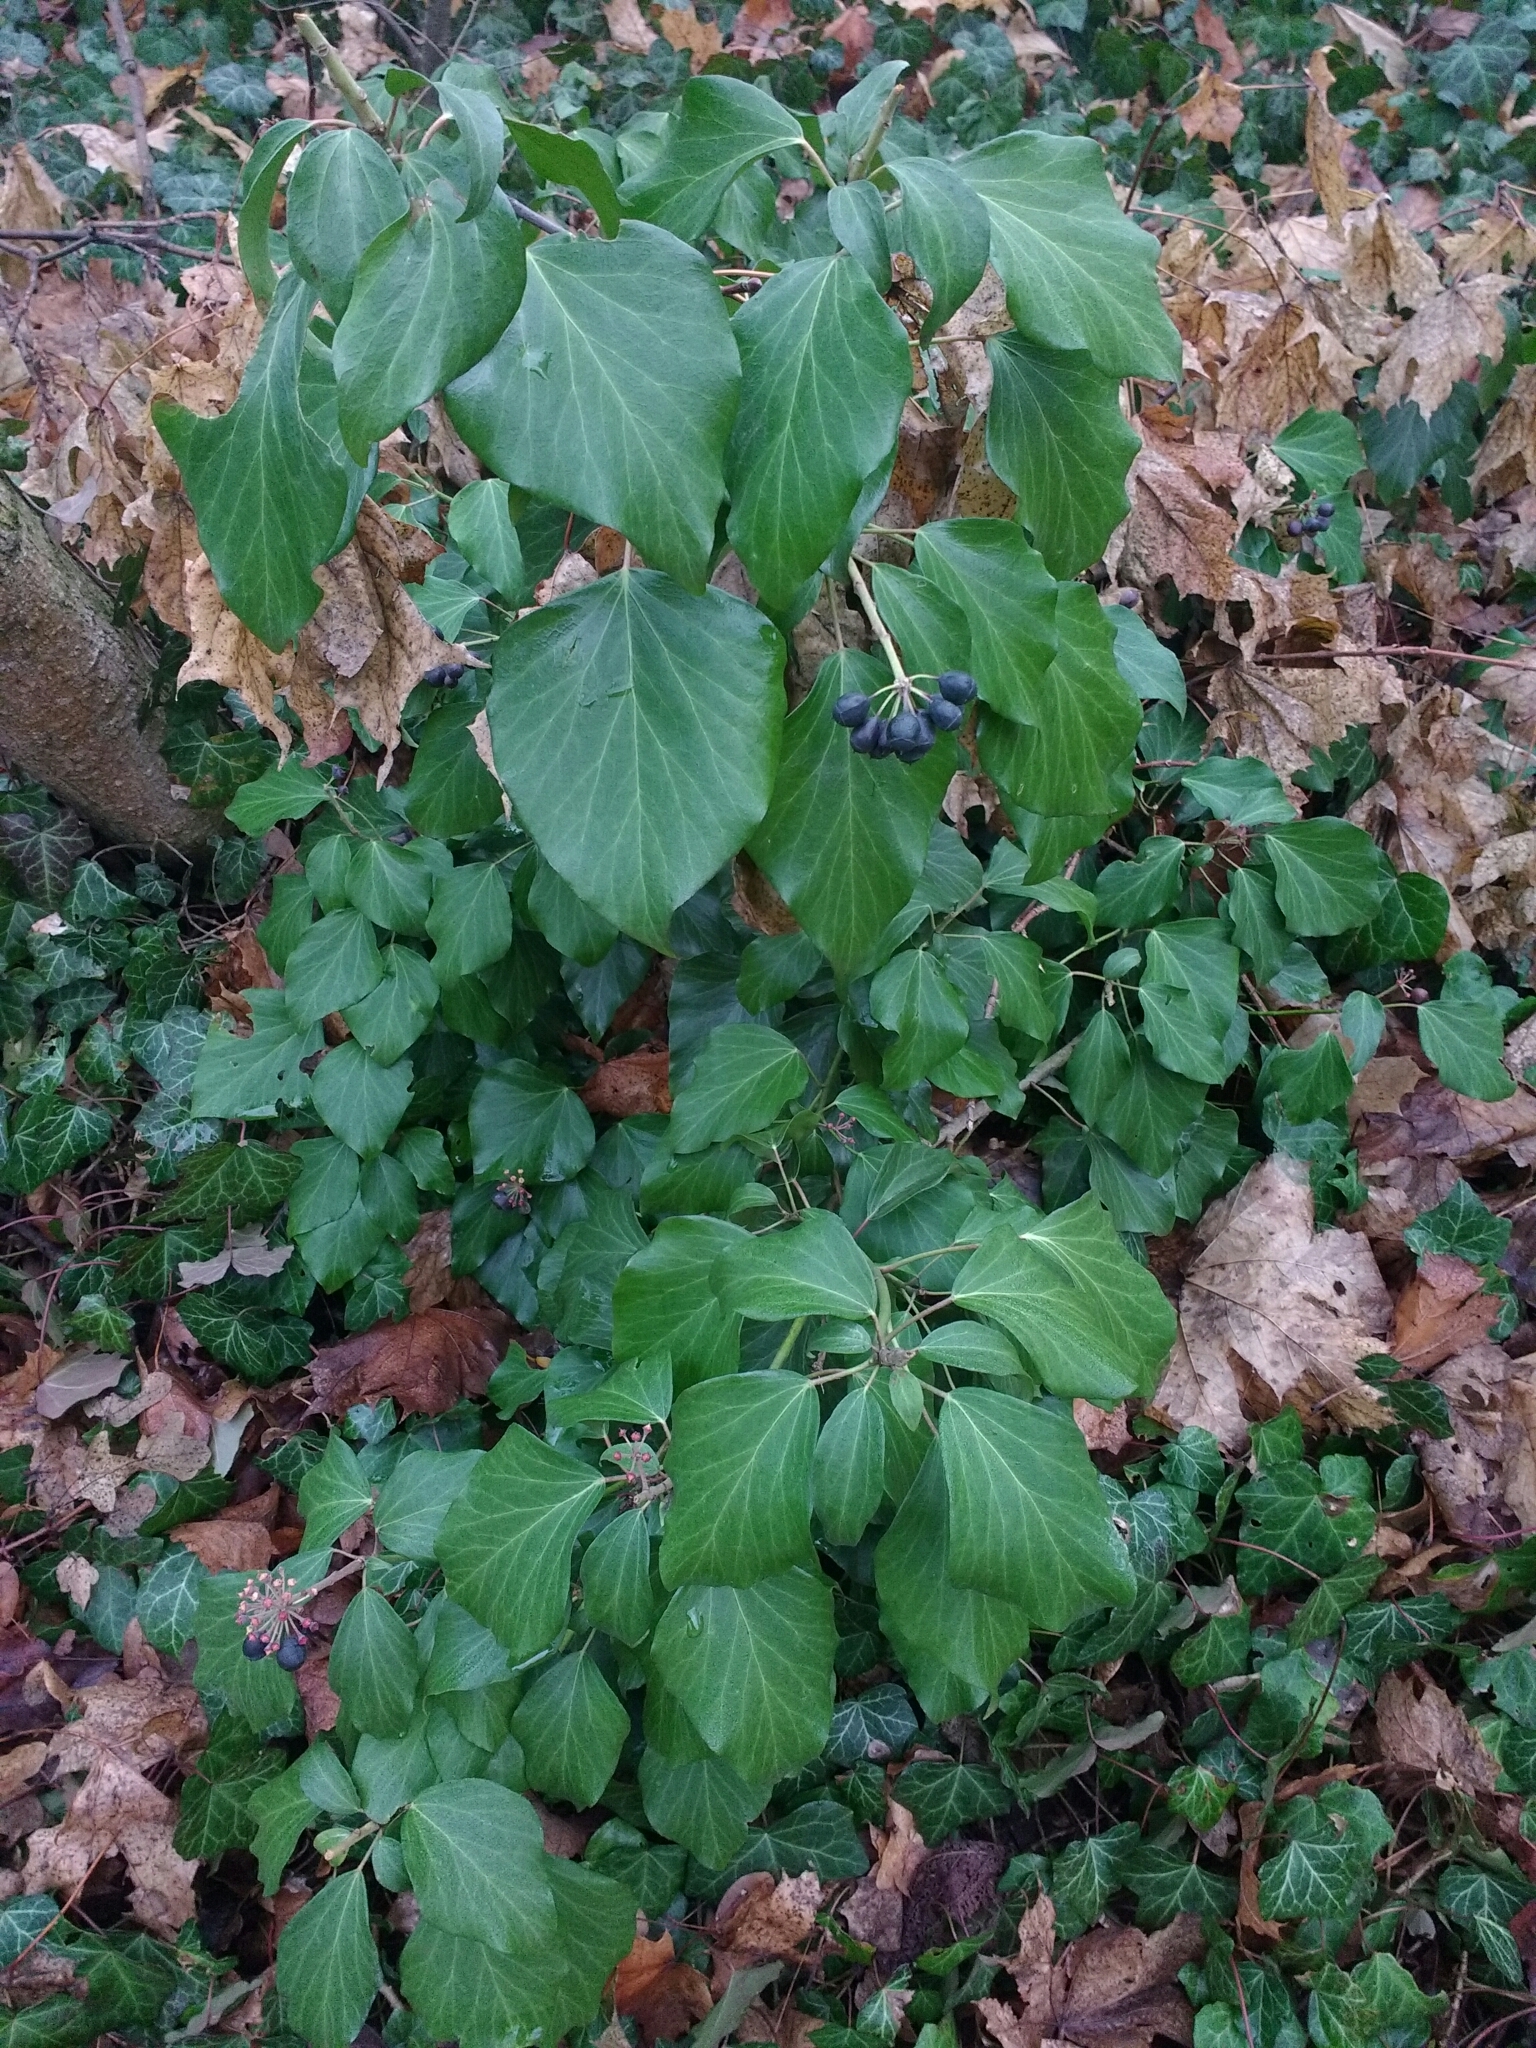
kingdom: Plantae
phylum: Tracheophyta
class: Magnoliopsida
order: Apiales
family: Araliaceae
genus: Hedera
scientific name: Hedera helix
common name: Ivy
